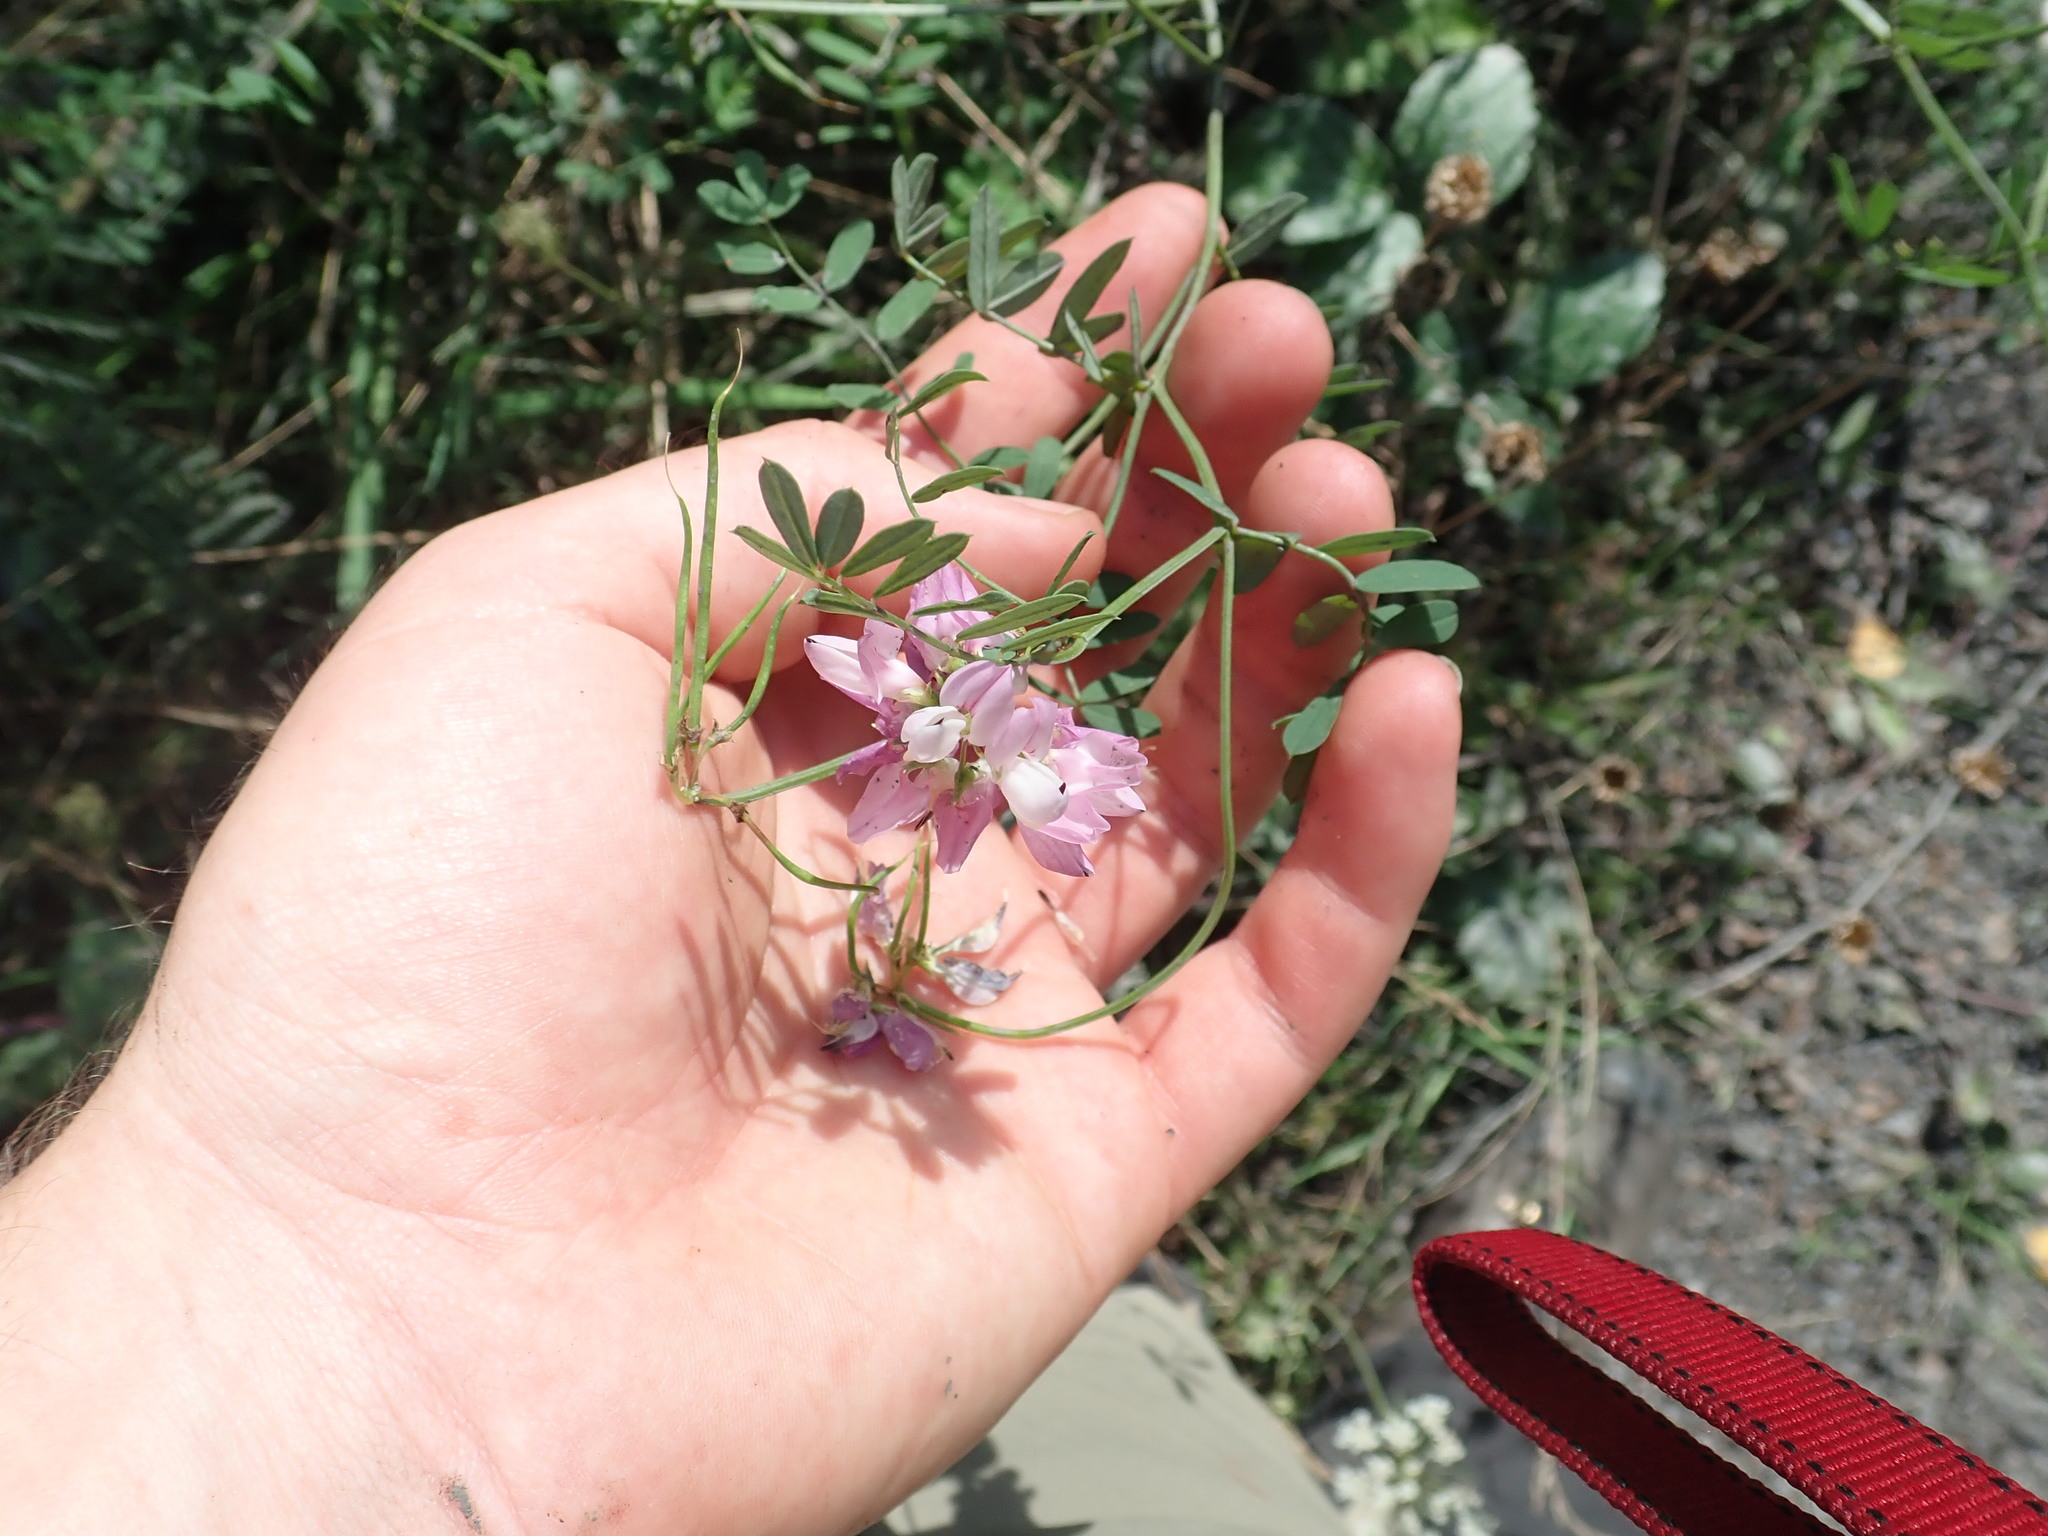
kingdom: Plantae
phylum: Tracheophyta
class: Magnoliopsida
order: Fabales
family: Fabaceae
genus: Coronilla
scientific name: Coronilla varia
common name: Crownvetch
